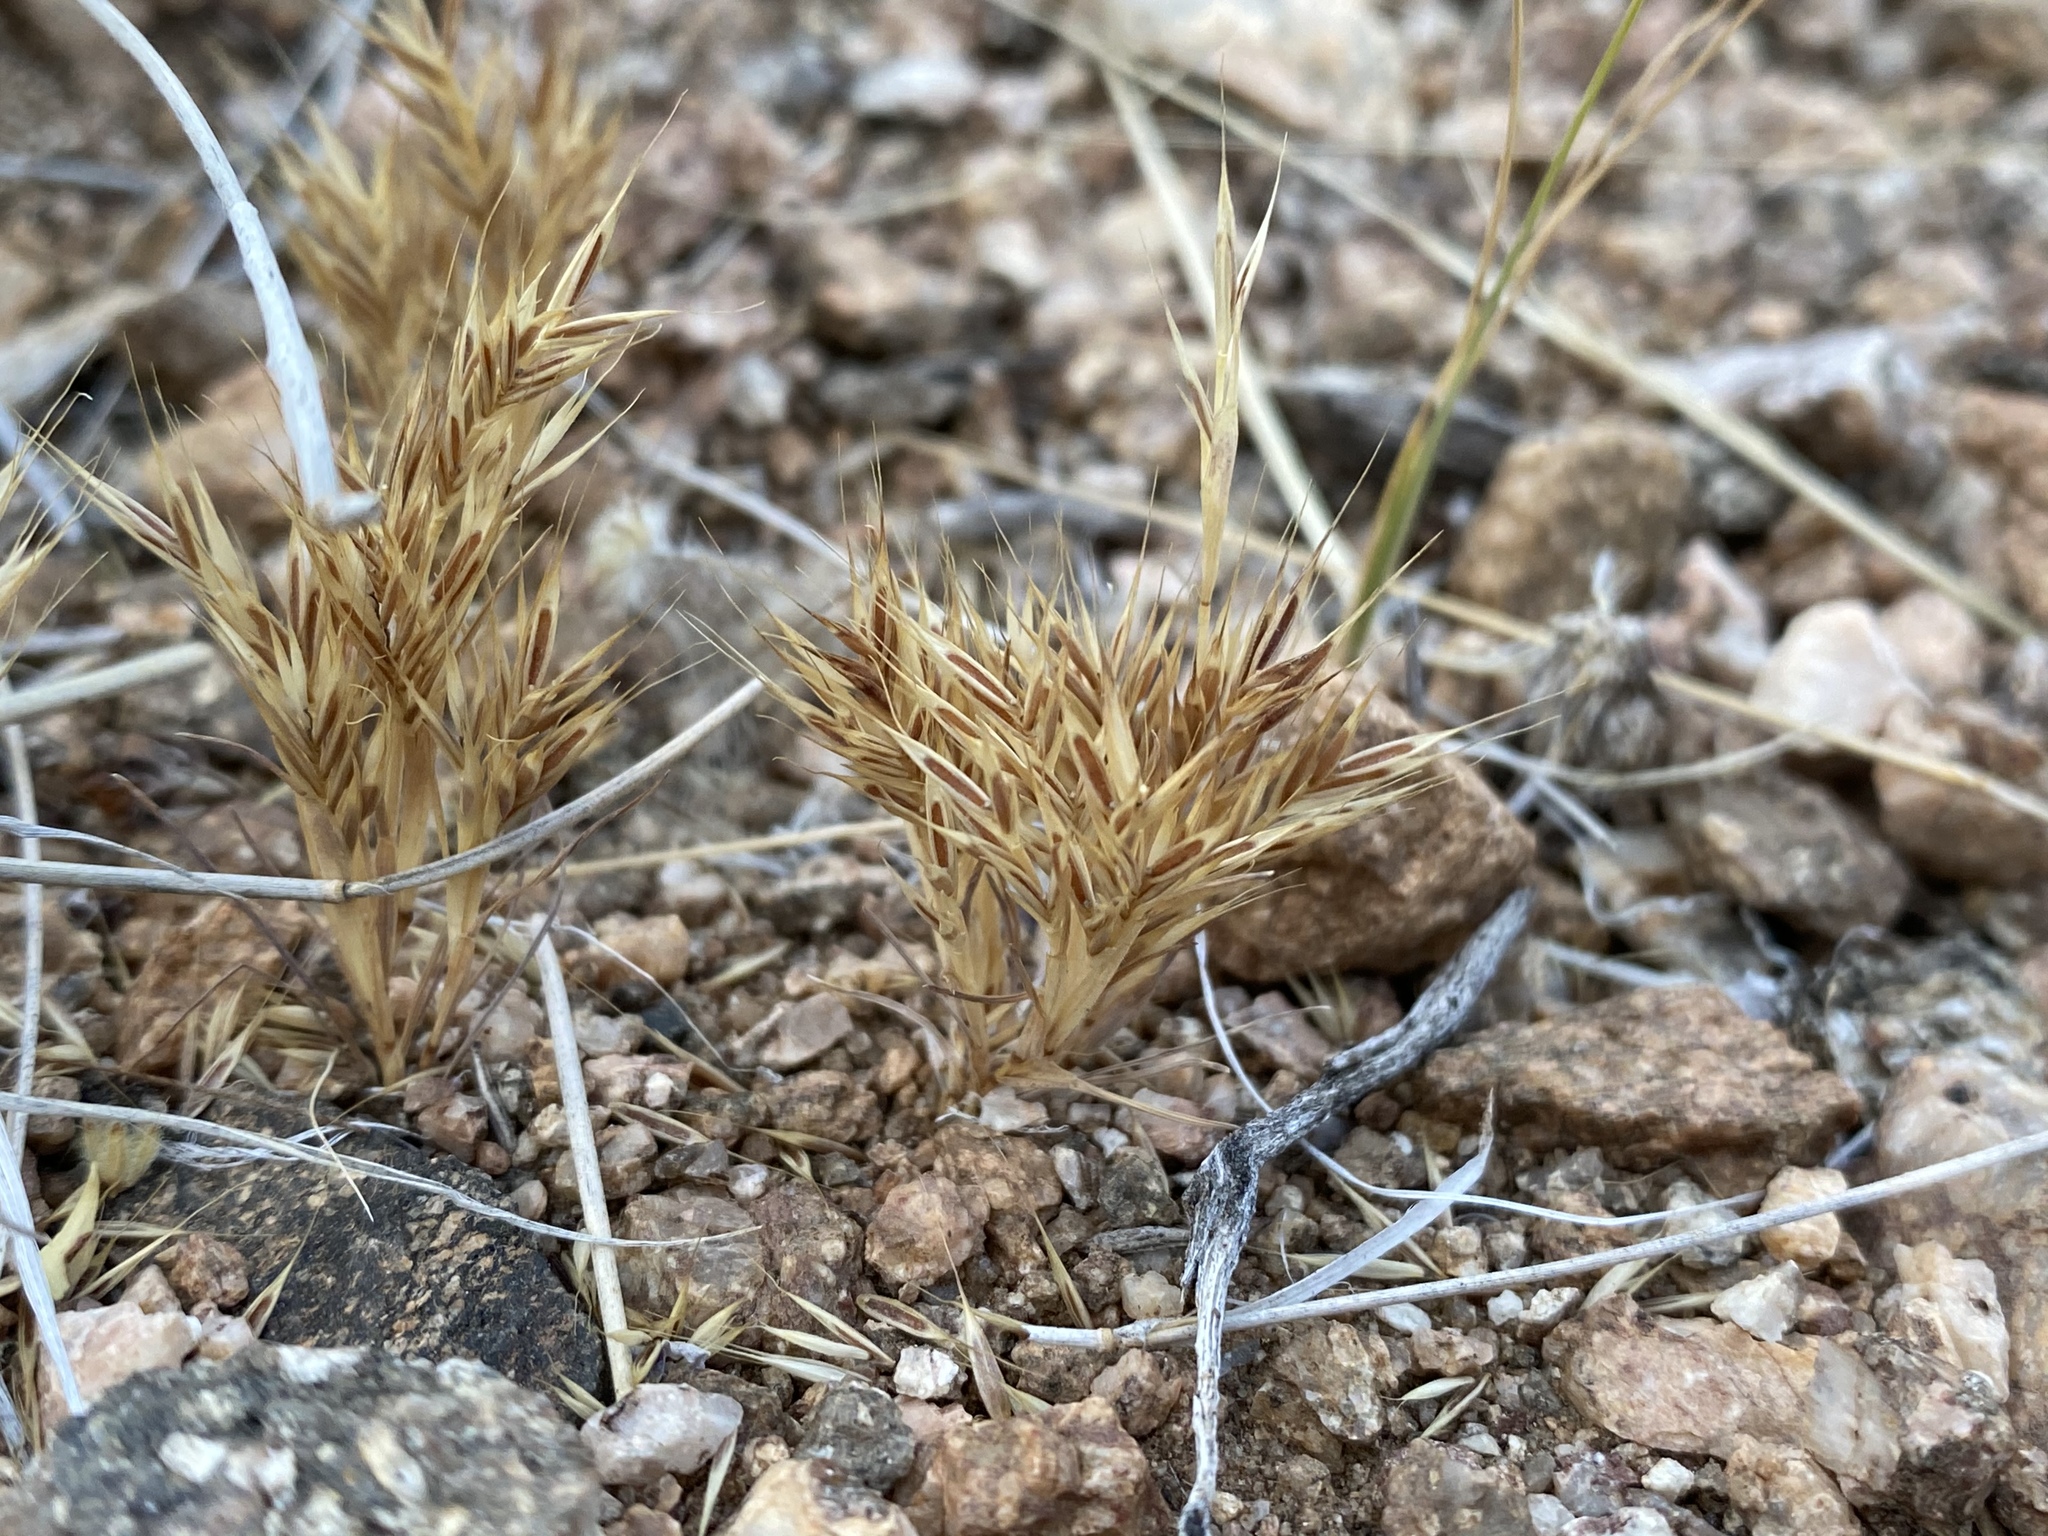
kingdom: Plantae
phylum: Tracheophyta
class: Liliopsida
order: Poales
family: Poaceae
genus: Festuca
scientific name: Festuca octoflora
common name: Sixweeks grass
